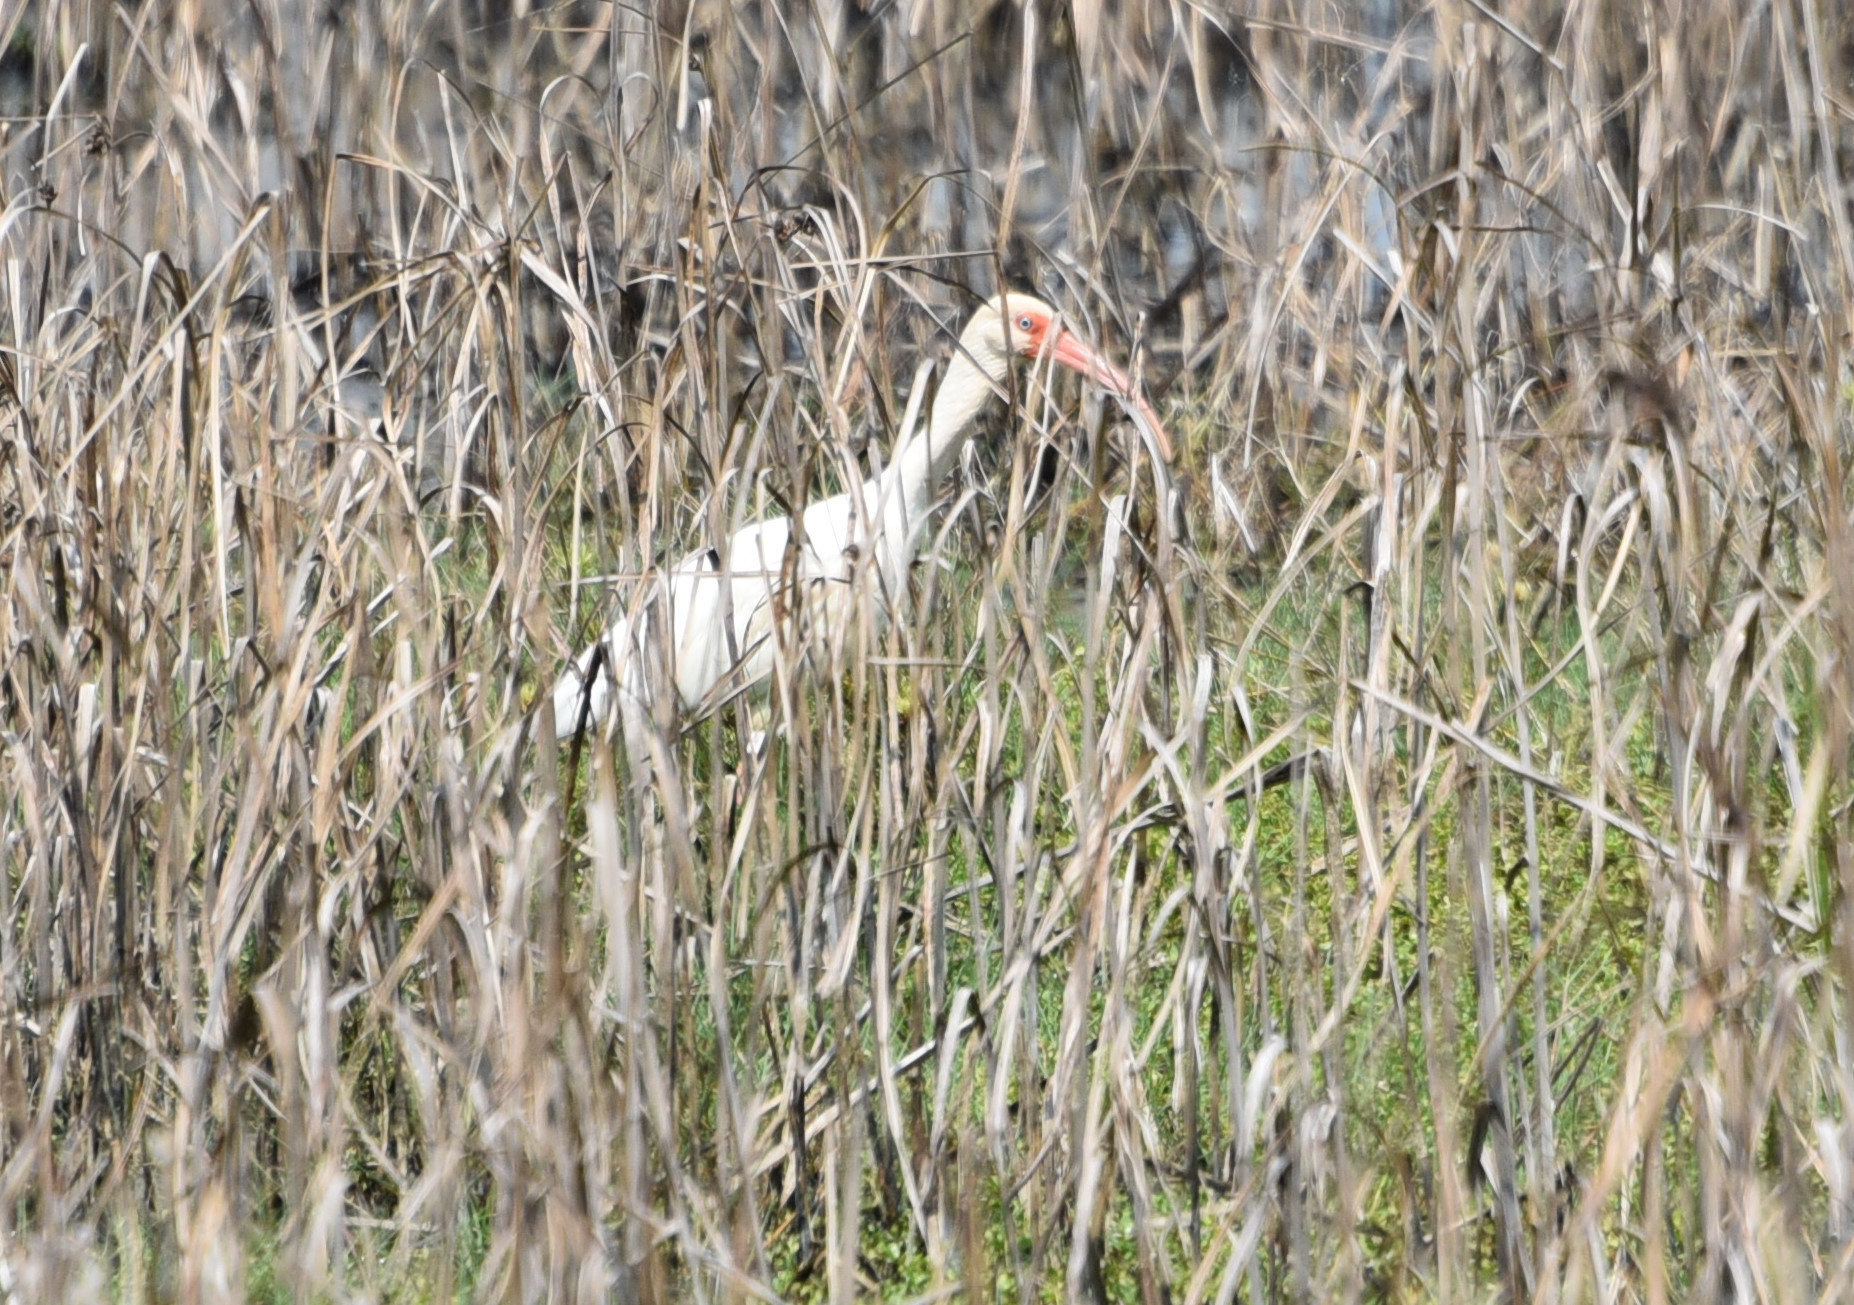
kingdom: Animalia
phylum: Chordata
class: Aves
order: Pelecaniformes
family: Threskiornithidae
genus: Eudocimus
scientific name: Eudocimus albus
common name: White ibis
